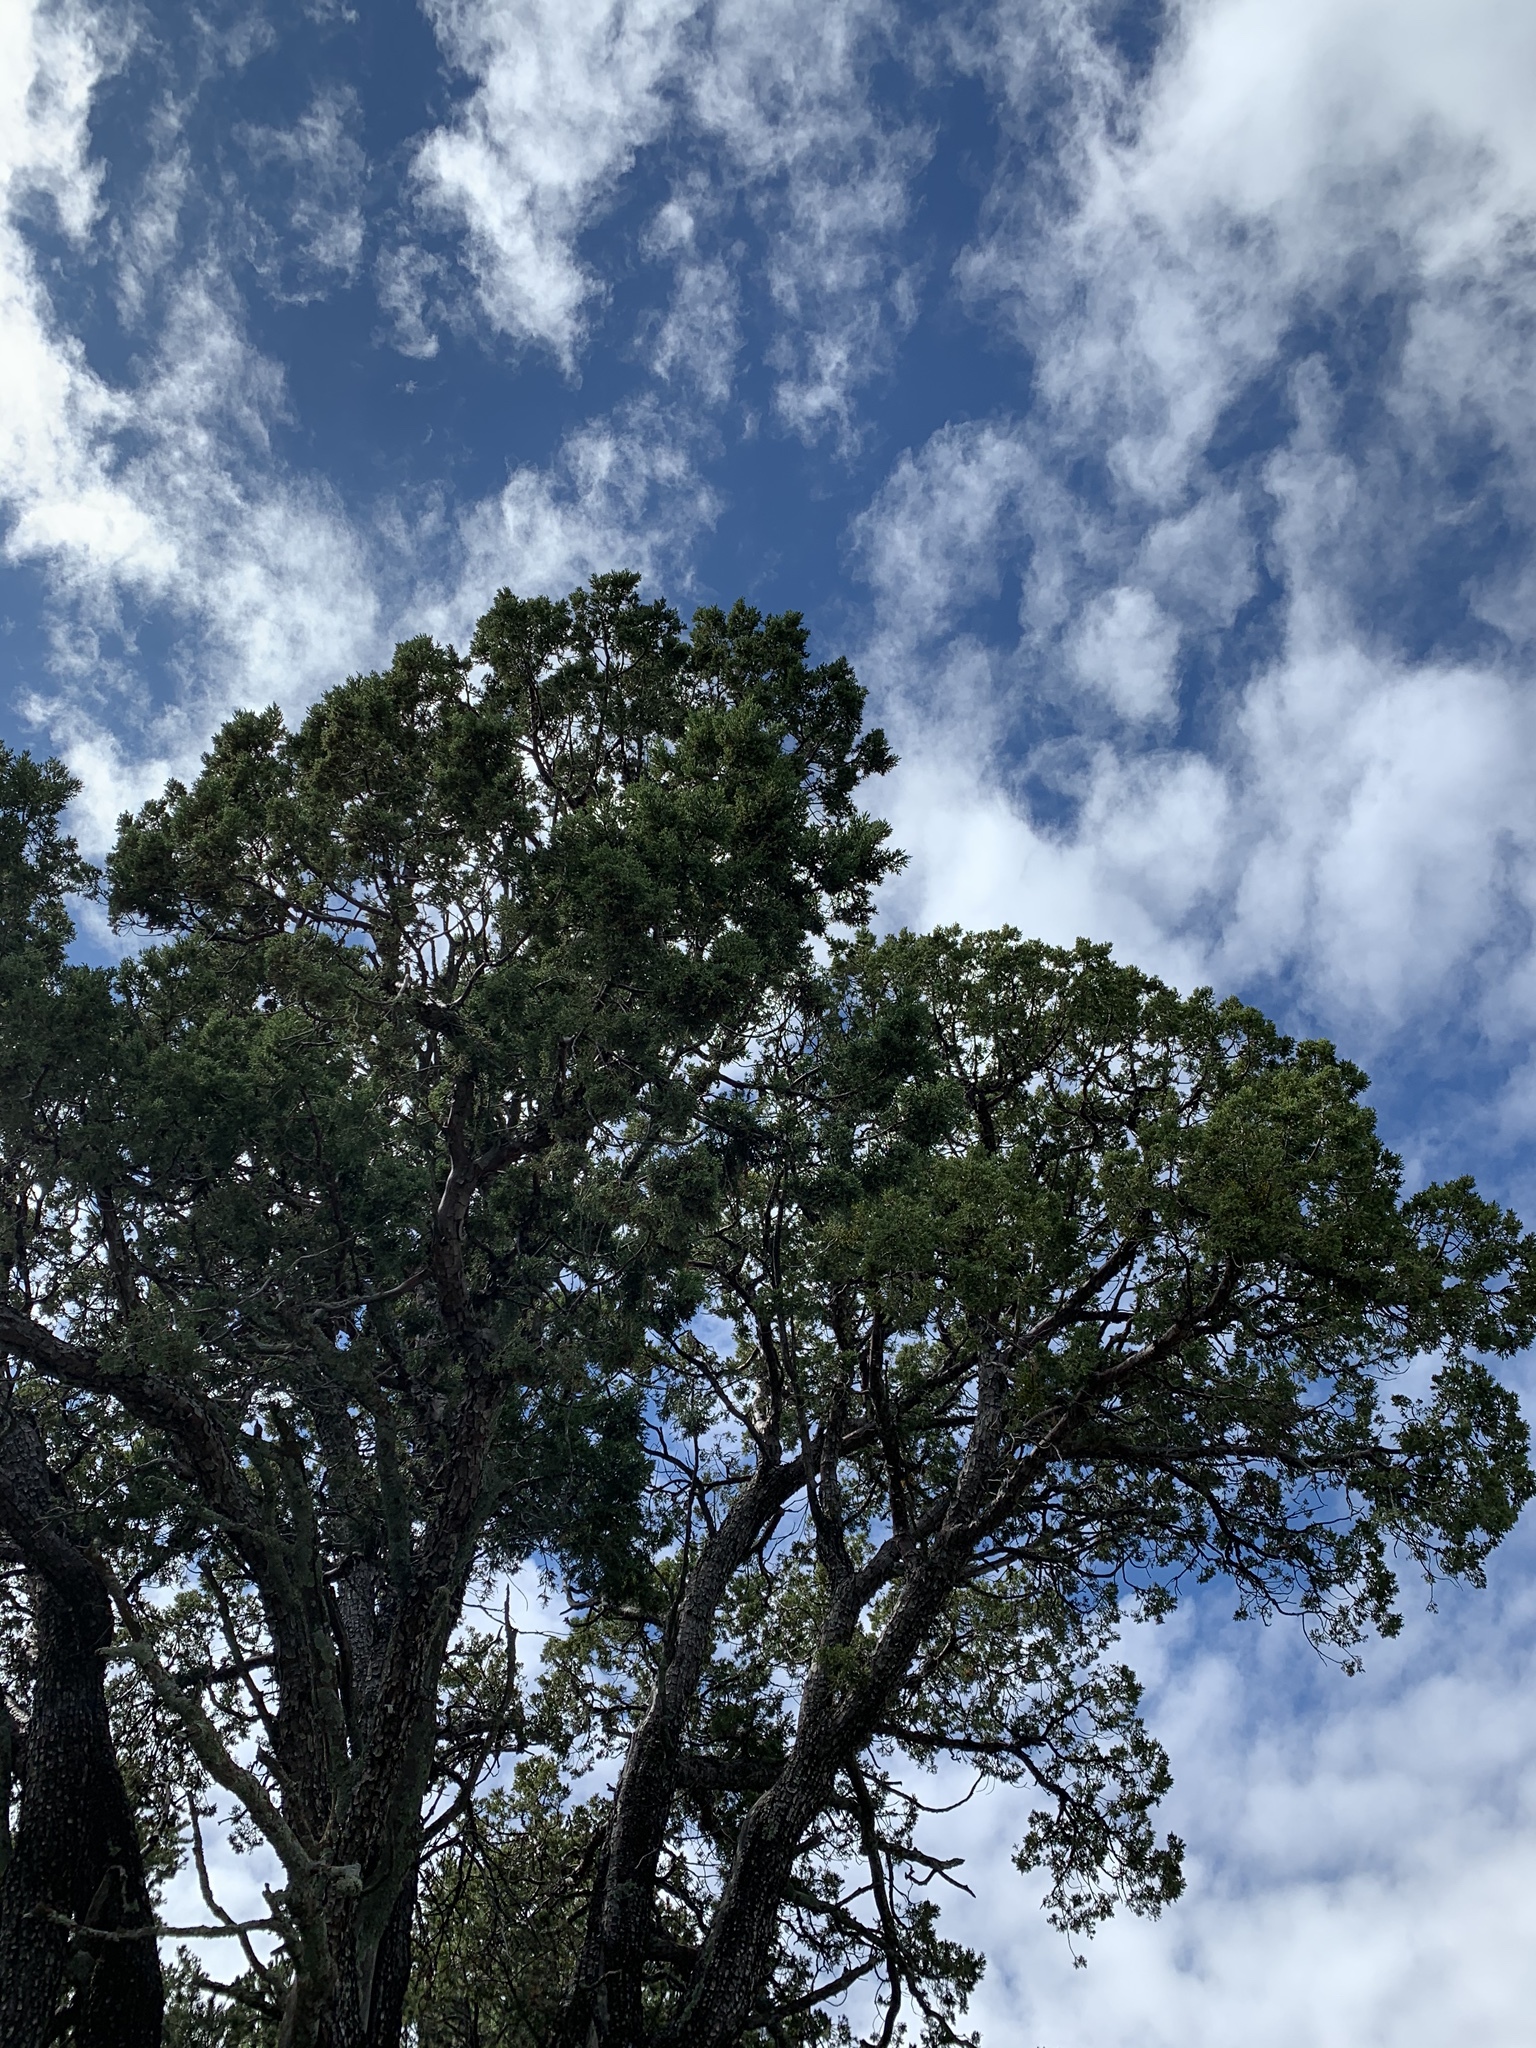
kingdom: Plantae
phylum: Tracheophyta
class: Pinopsida
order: Pinales
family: Cupressaceae
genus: Juniperus
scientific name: Juniperus deppeana
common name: Alligator juniper
